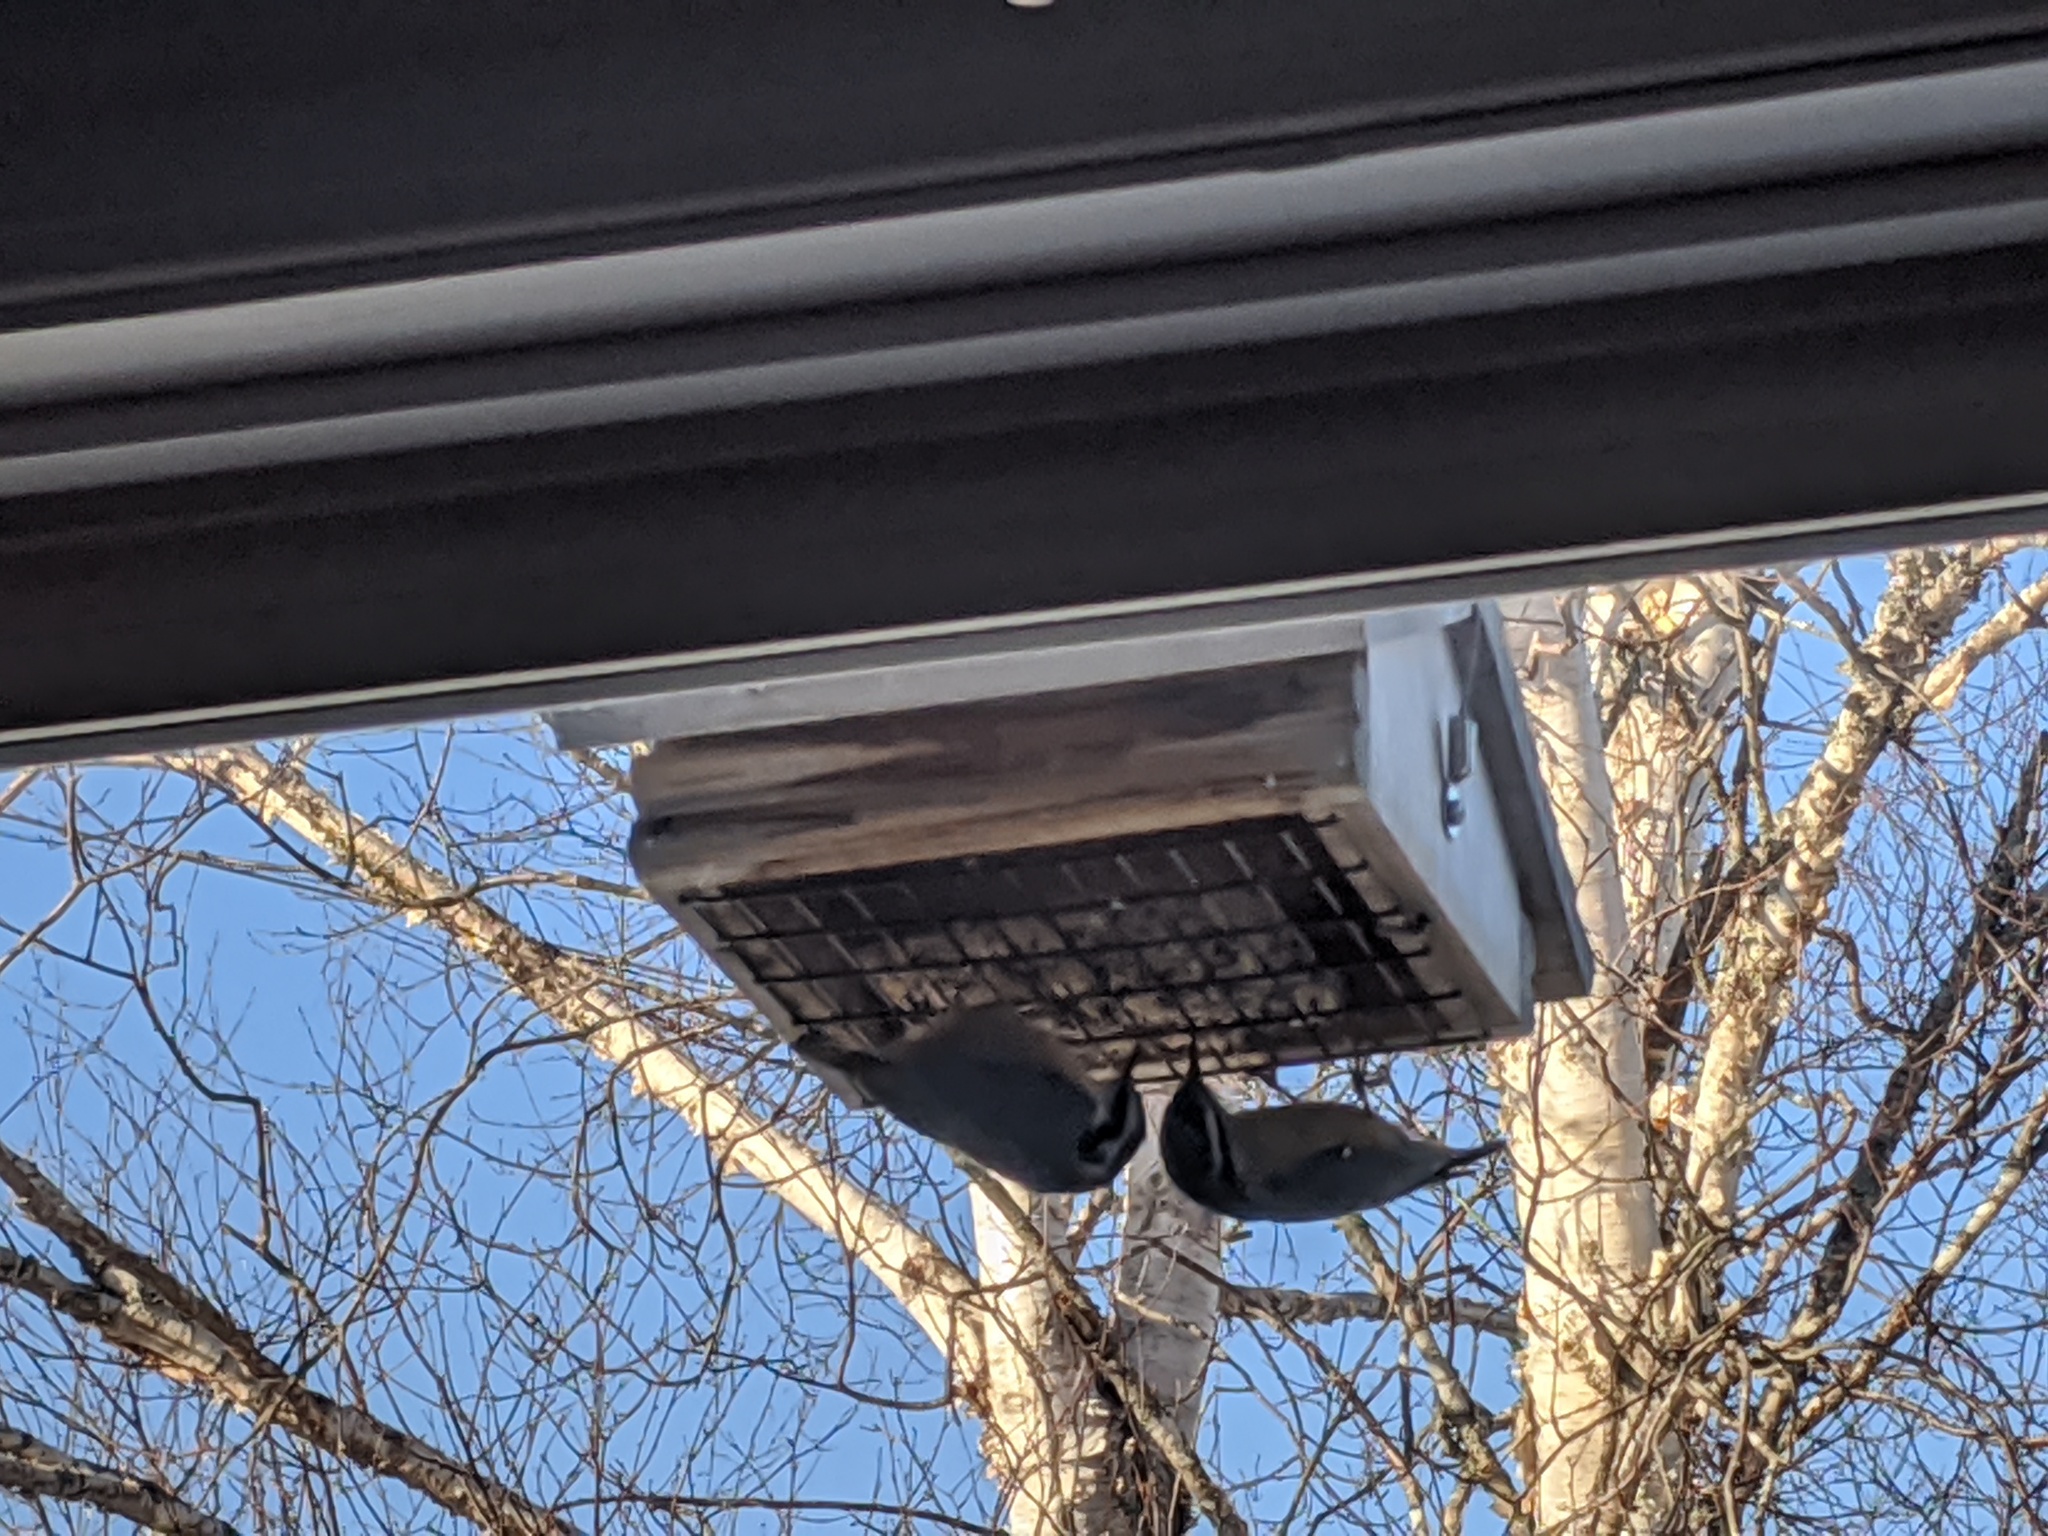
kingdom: Animalia
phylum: Chordata
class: Aves
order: Passeriformes
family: Sittidae
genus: Sitta
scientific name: Sitta canadensis
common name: Red-breasted nuthatch
